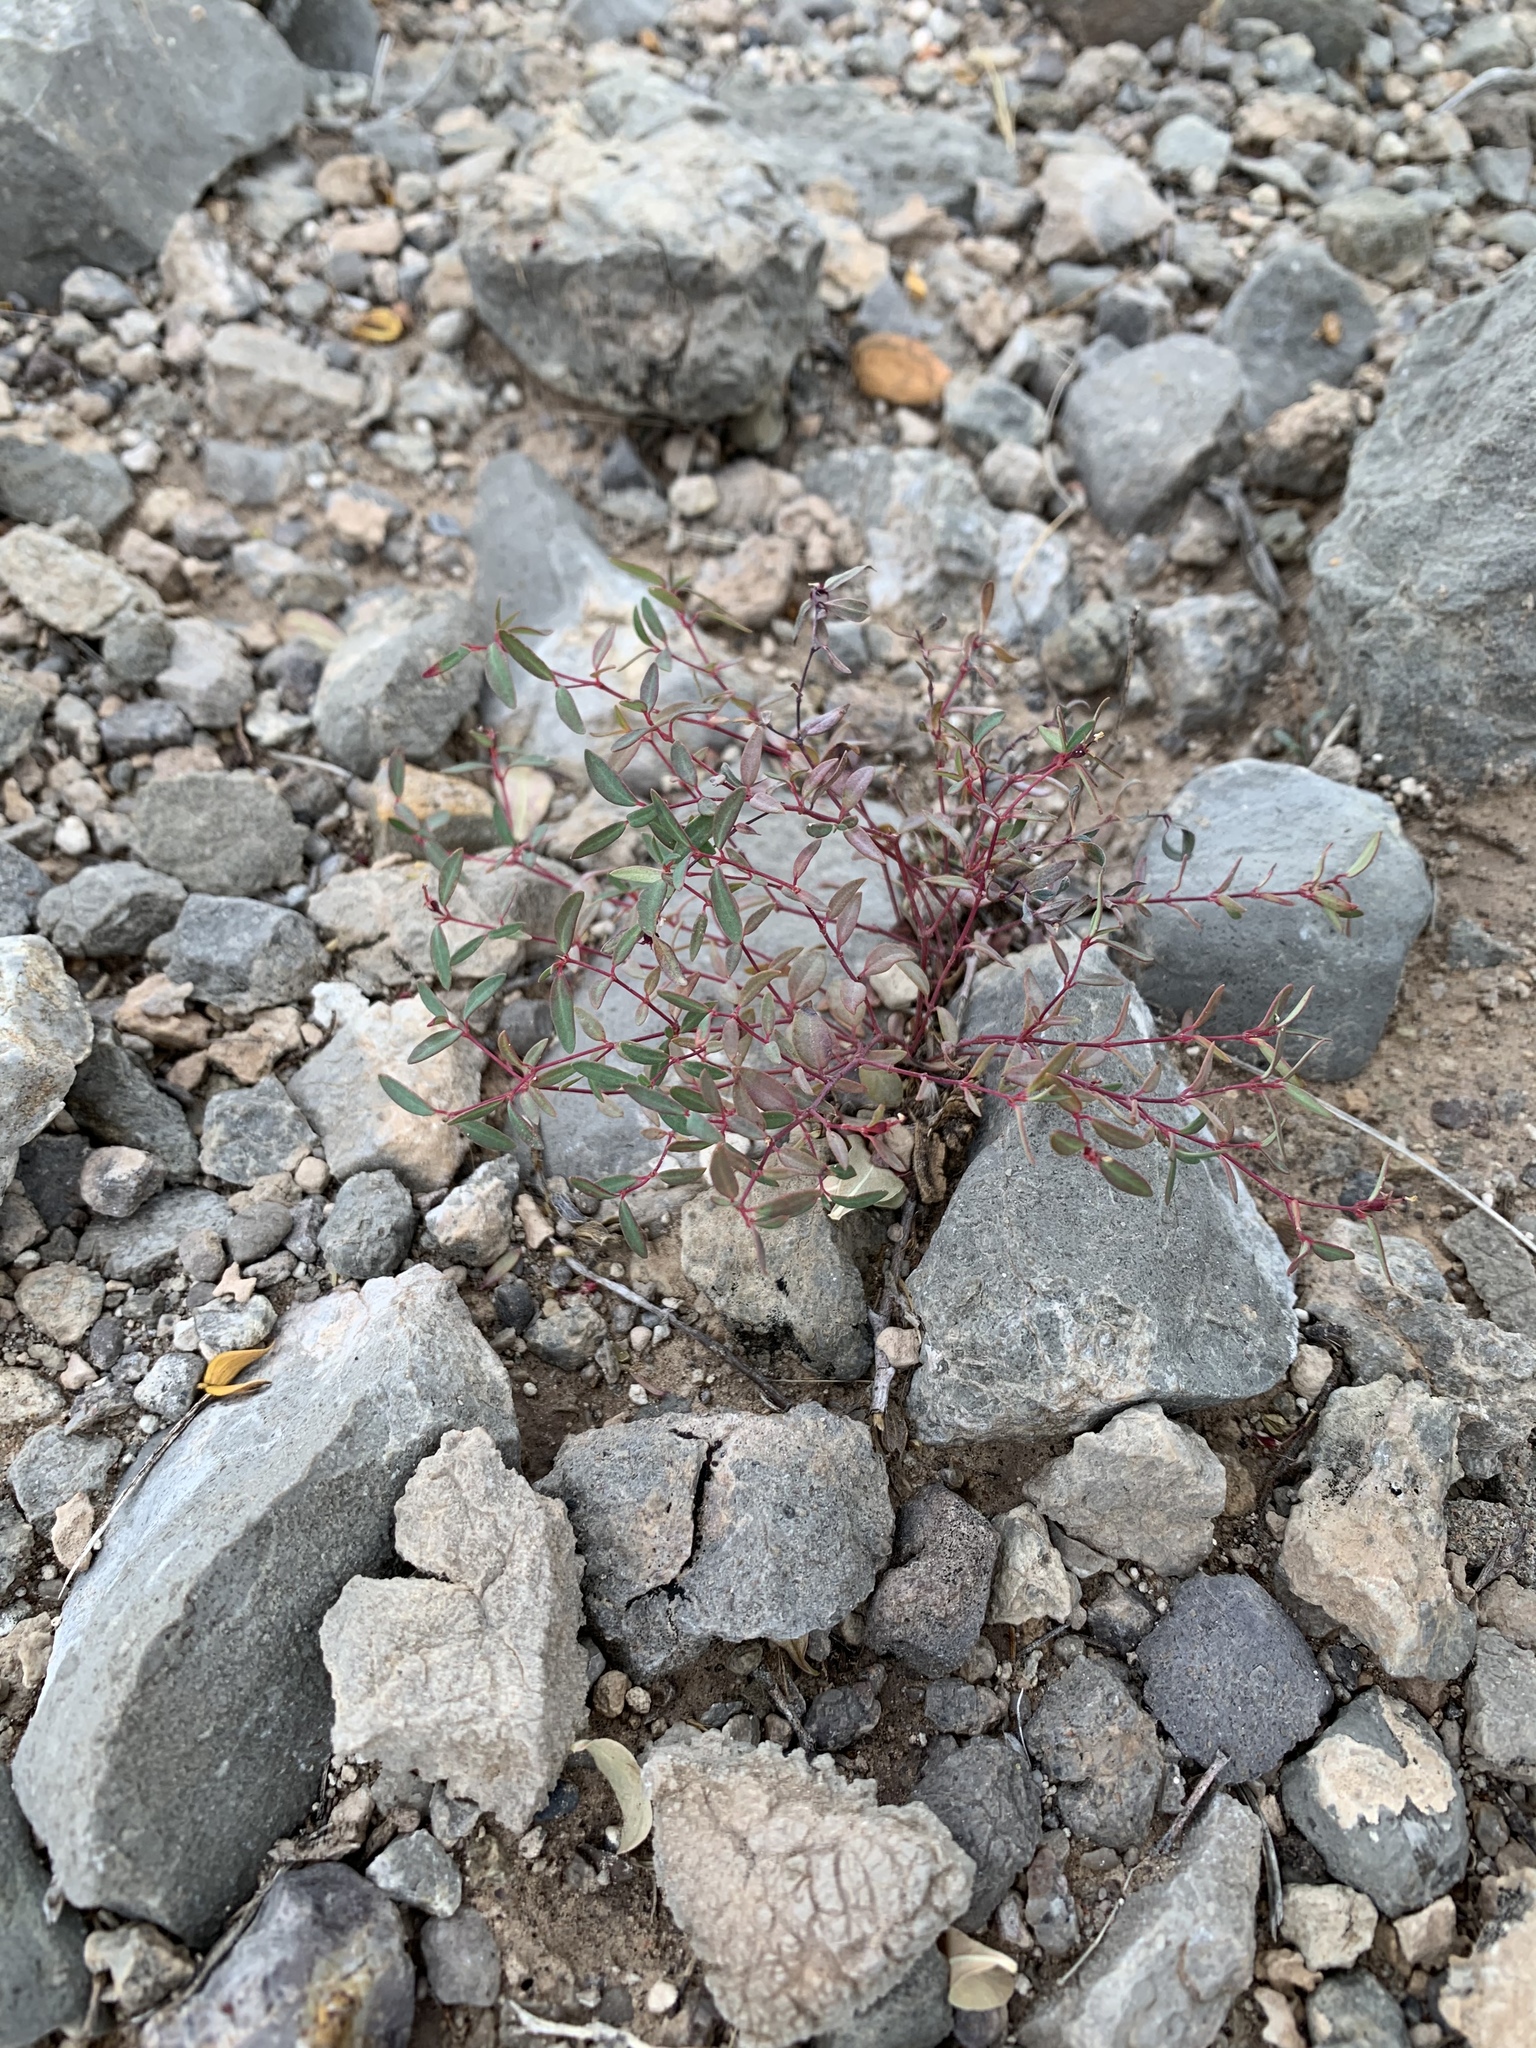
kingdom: Plantae
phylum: Tracheophyta
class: Magnoliopsida
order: Malpighiales
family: Euphorbiaceae
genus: Euphorbia
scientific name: Euphorbia chaetocalyx
